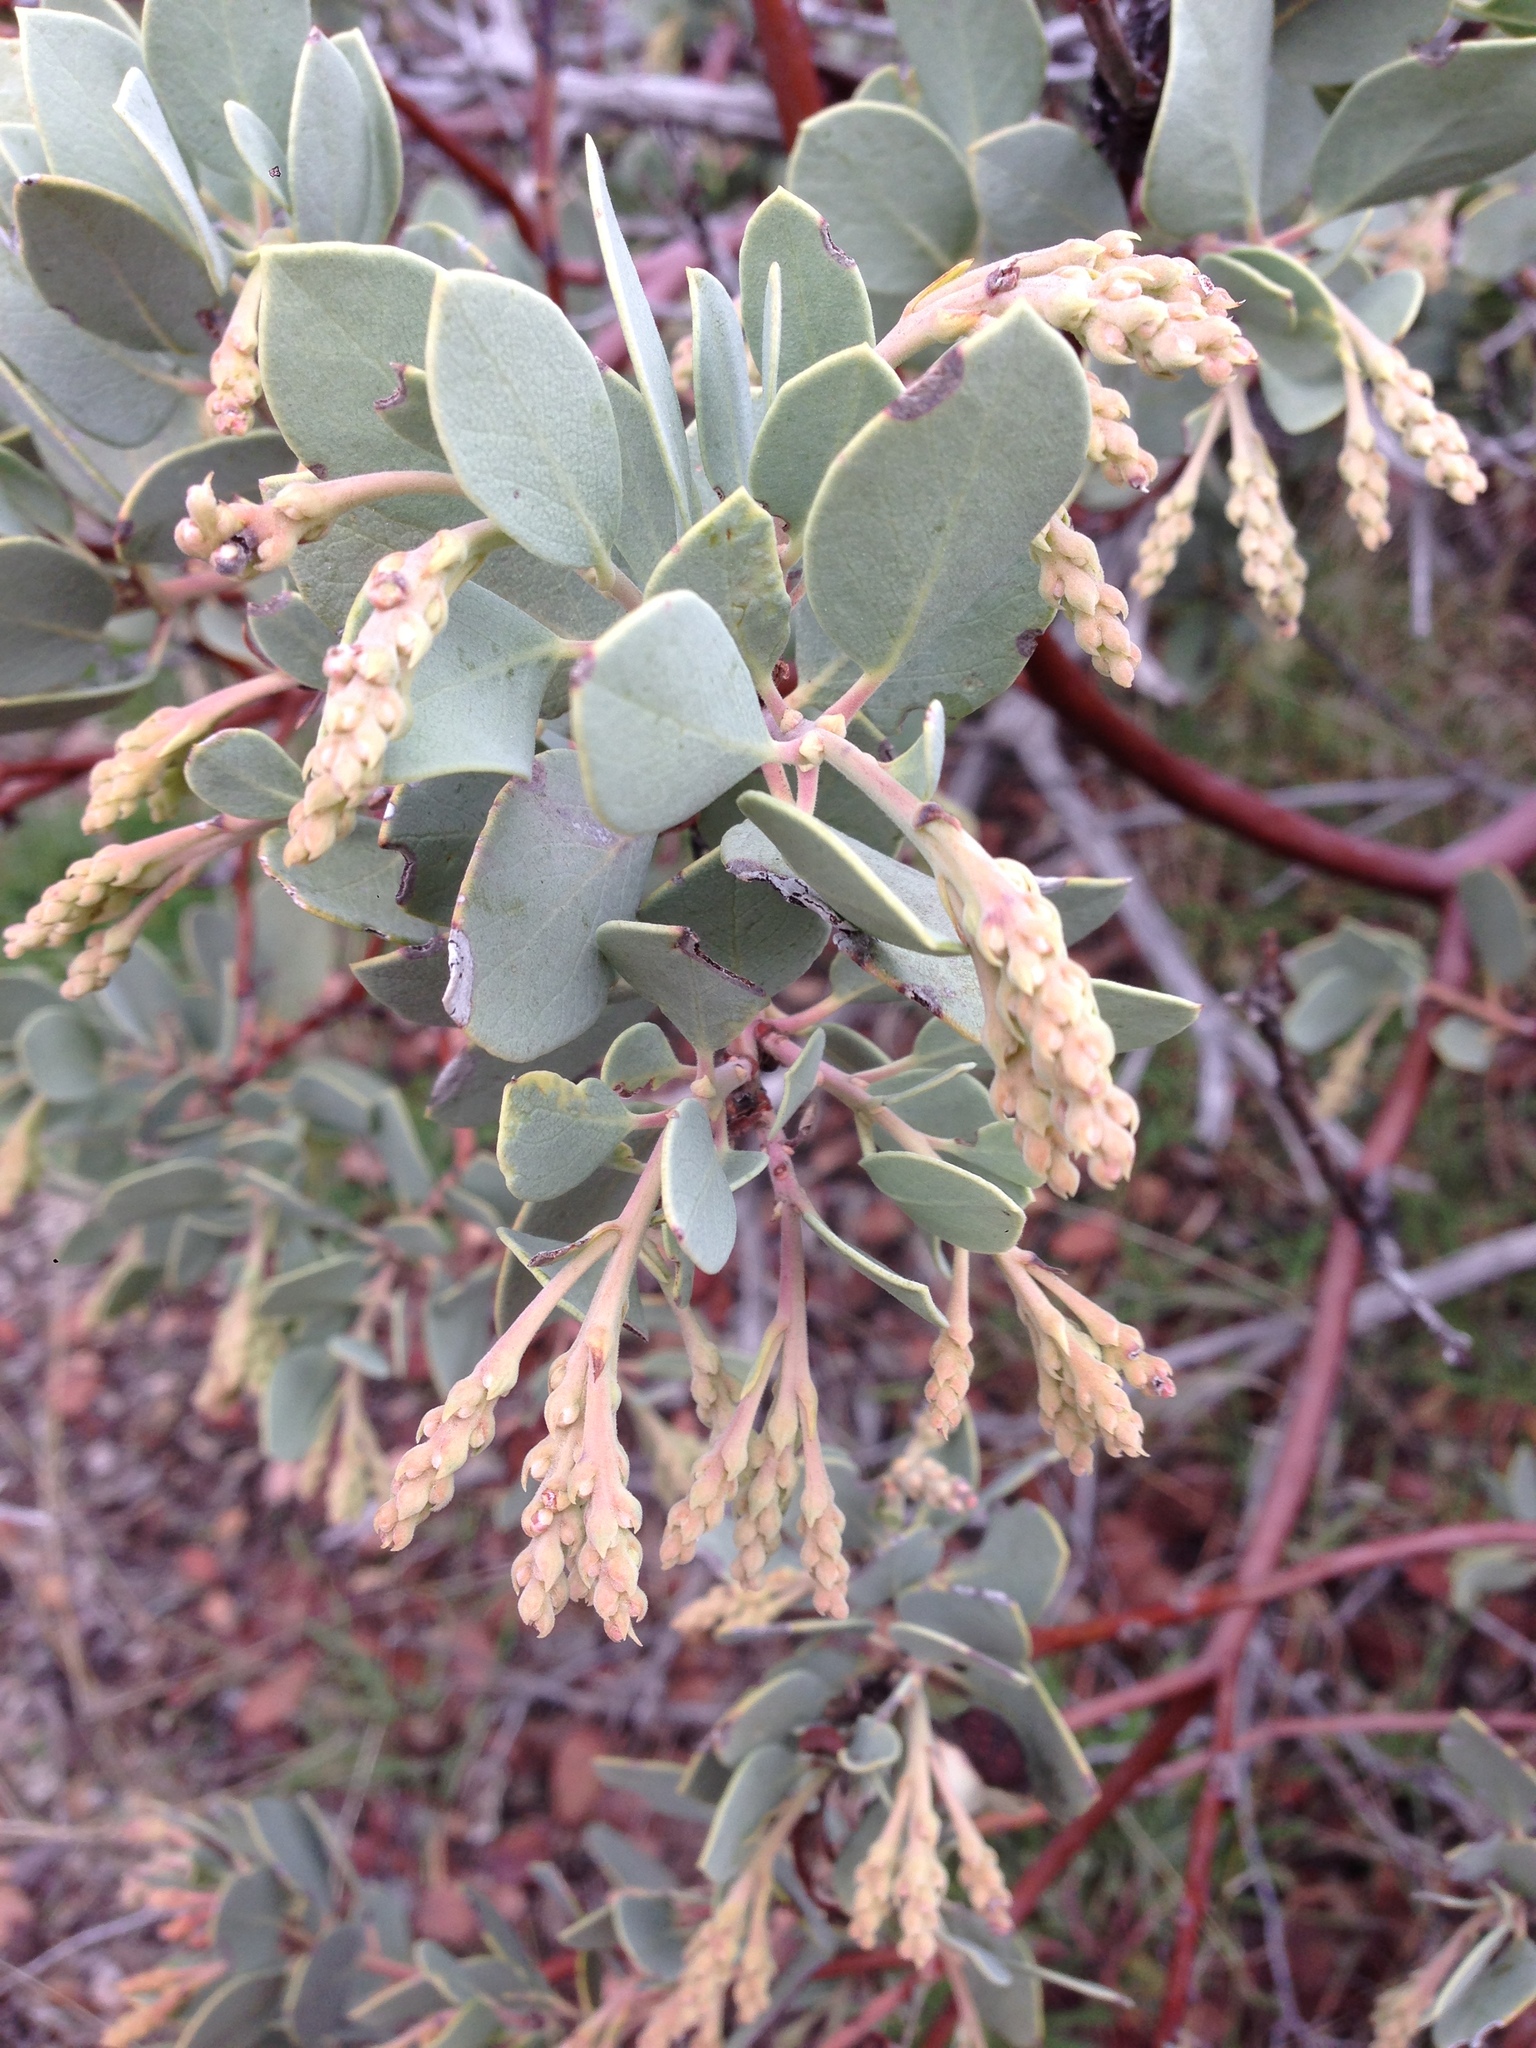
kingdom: Plantae
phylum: Tracheophyta
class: Magnoliopsida
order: Ericales
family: Ericaceae
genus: Arctostaphylos
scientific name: Arctostaphylos glauca
